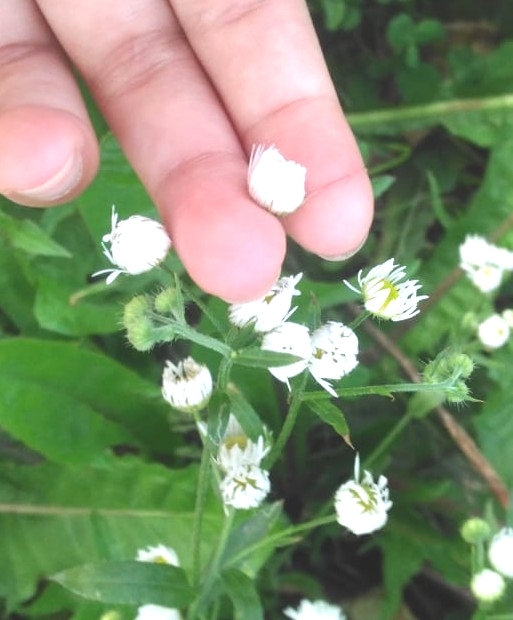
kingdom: Plantae
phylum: Tracheophyta
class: Magnoliopsida
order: Asterales
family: Asteraceae
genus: Erigeron
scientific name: Erigeron annuus
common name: Tall fleabane
